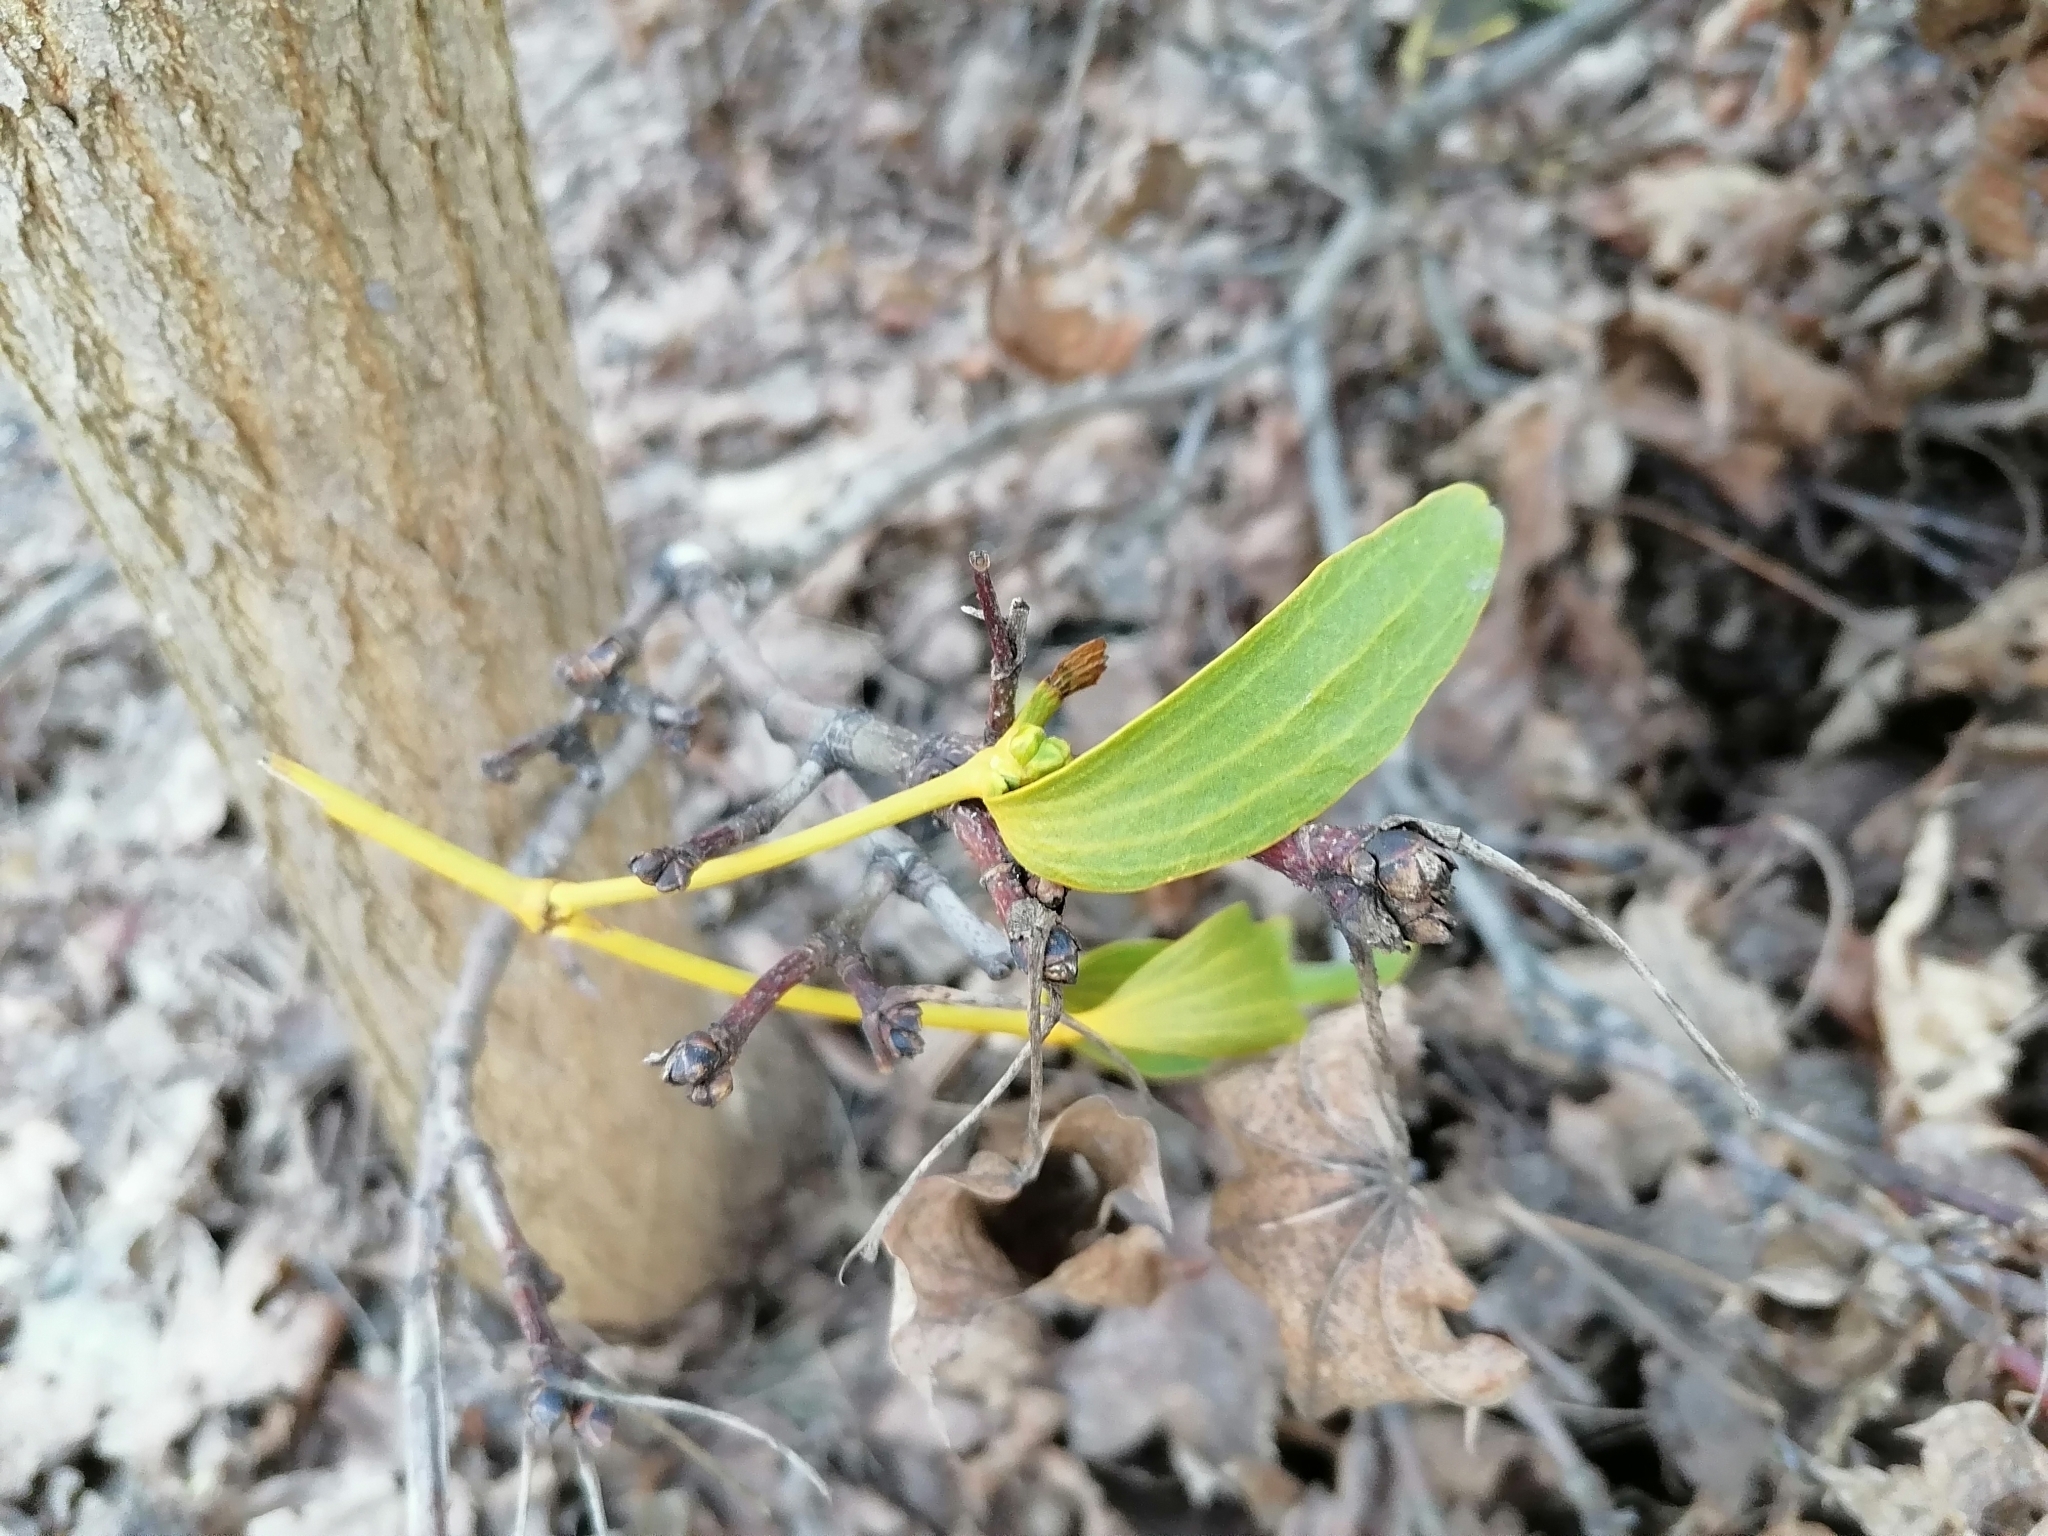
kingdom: Plantae
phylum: Tracheophyta
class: Magnoliopsida
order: Santalales
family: Viscaceae
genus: Viscum
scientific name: Viscum album
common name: Mistletoe
